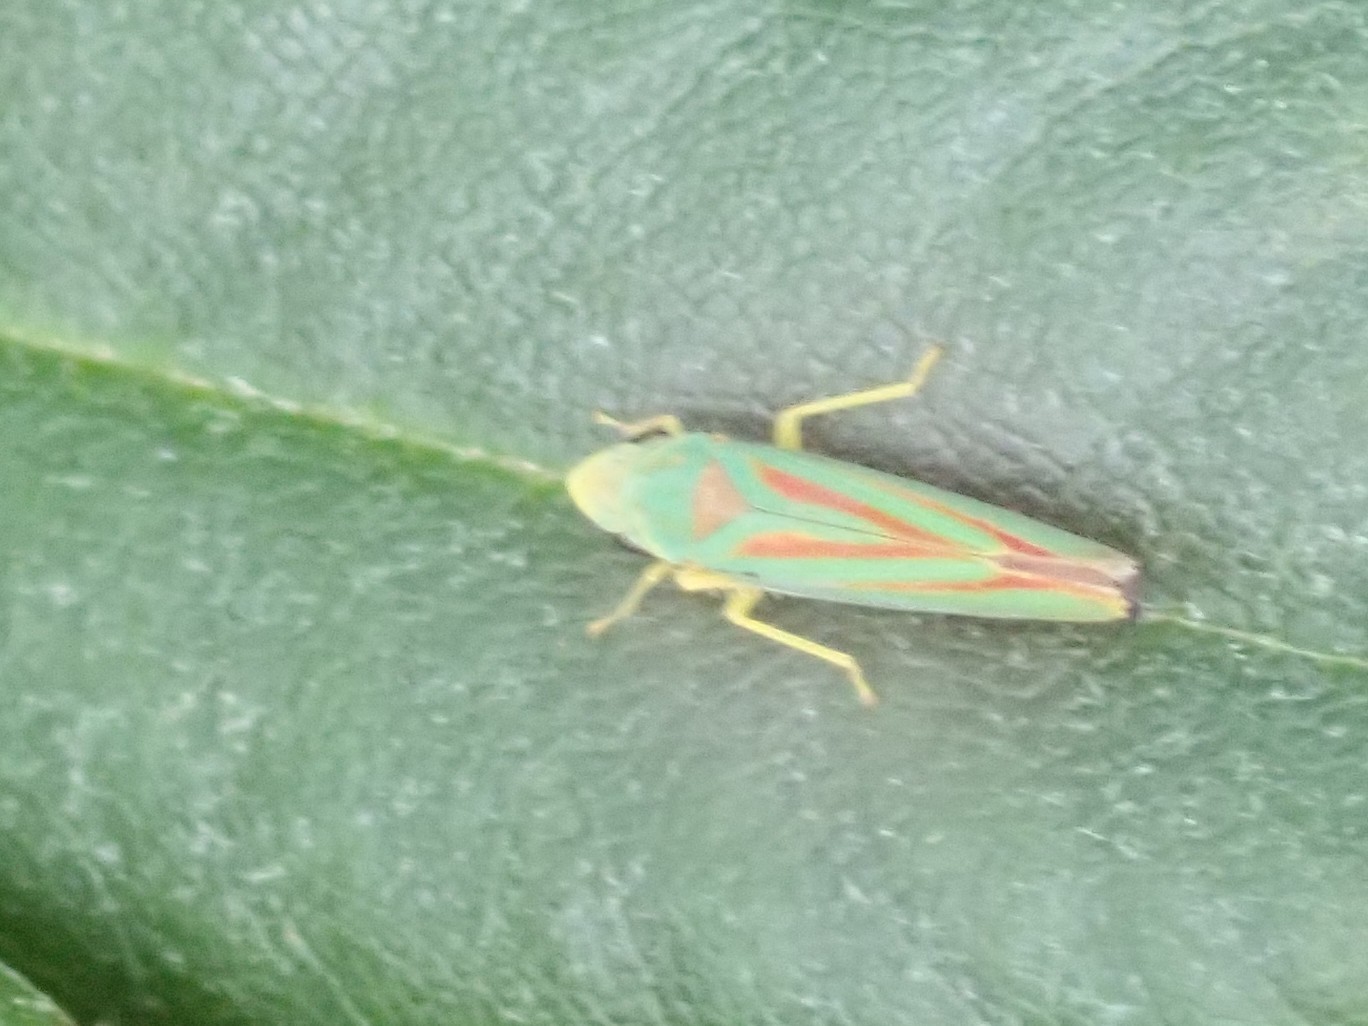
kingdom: Animalia
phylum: Arthropoda
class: Insecta
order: Hemiptera
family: Cicadellidae
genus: Graphocephala
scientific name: Graphocephala fennahi
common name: Rhododendron leafhopper
